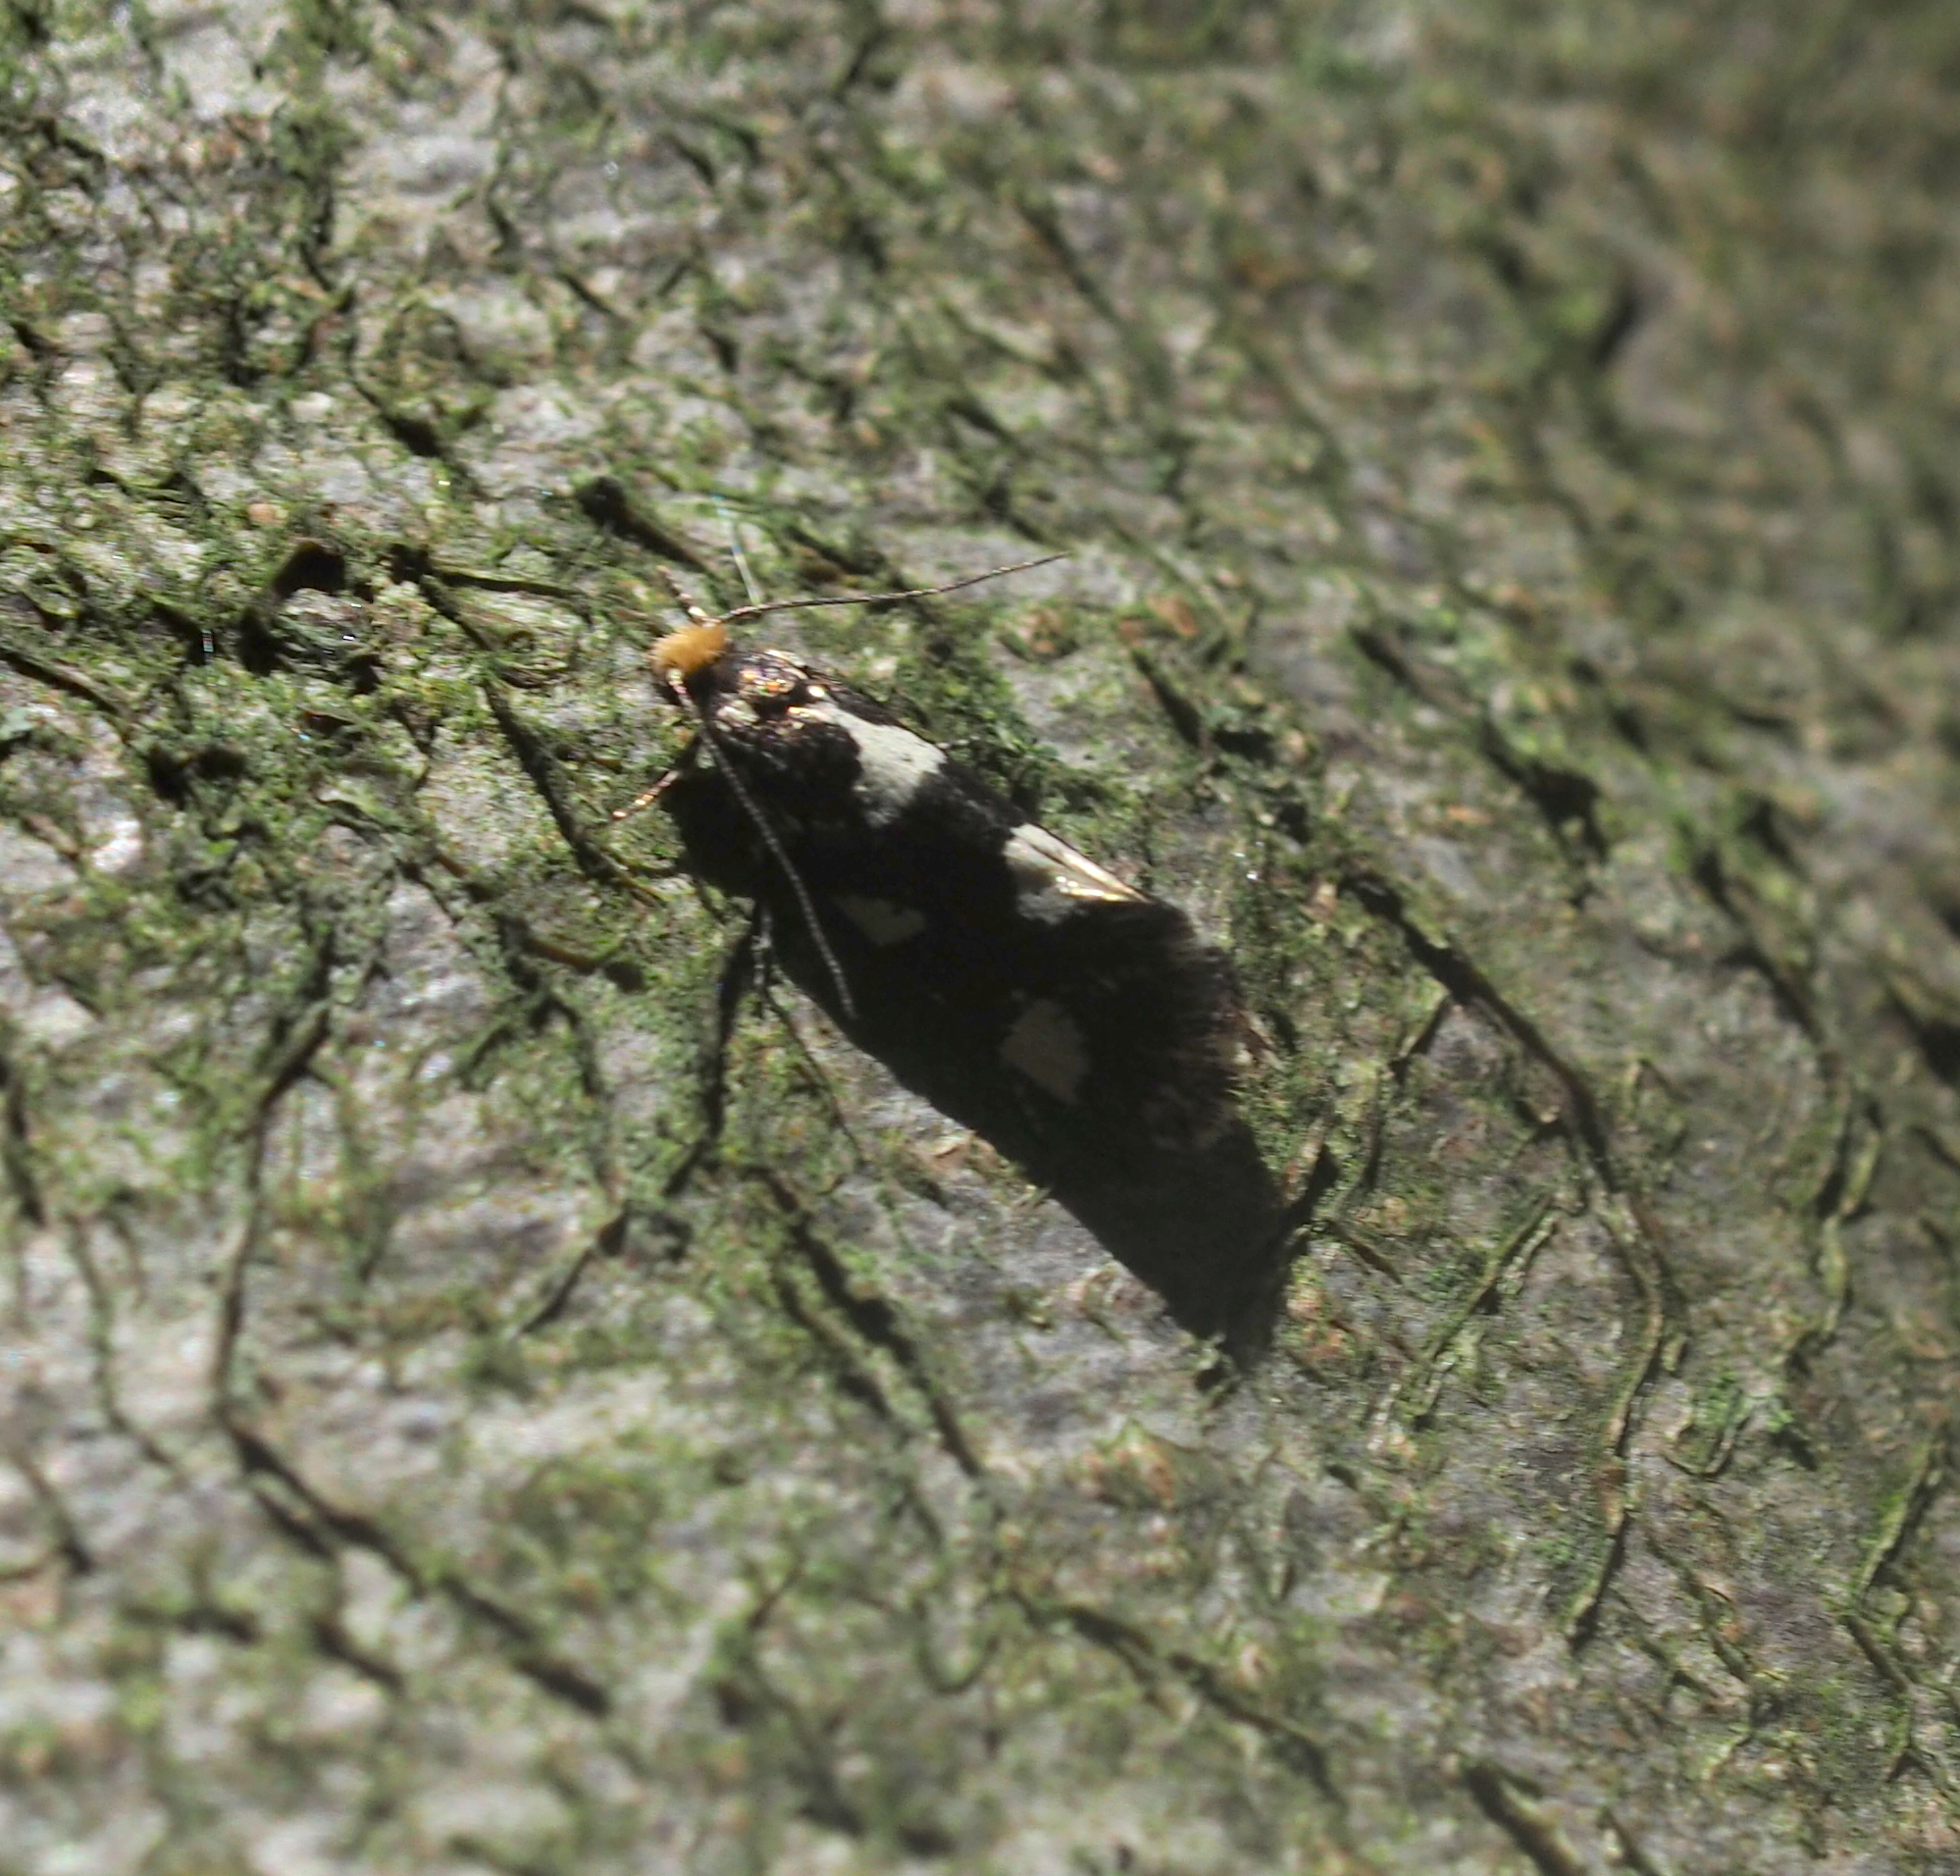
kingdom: Animalia
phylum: Arthropoda
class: Insecta
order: Lepidoptera
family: Incurvariidae
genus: Incurvaria
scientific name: Incurvaria rupella
